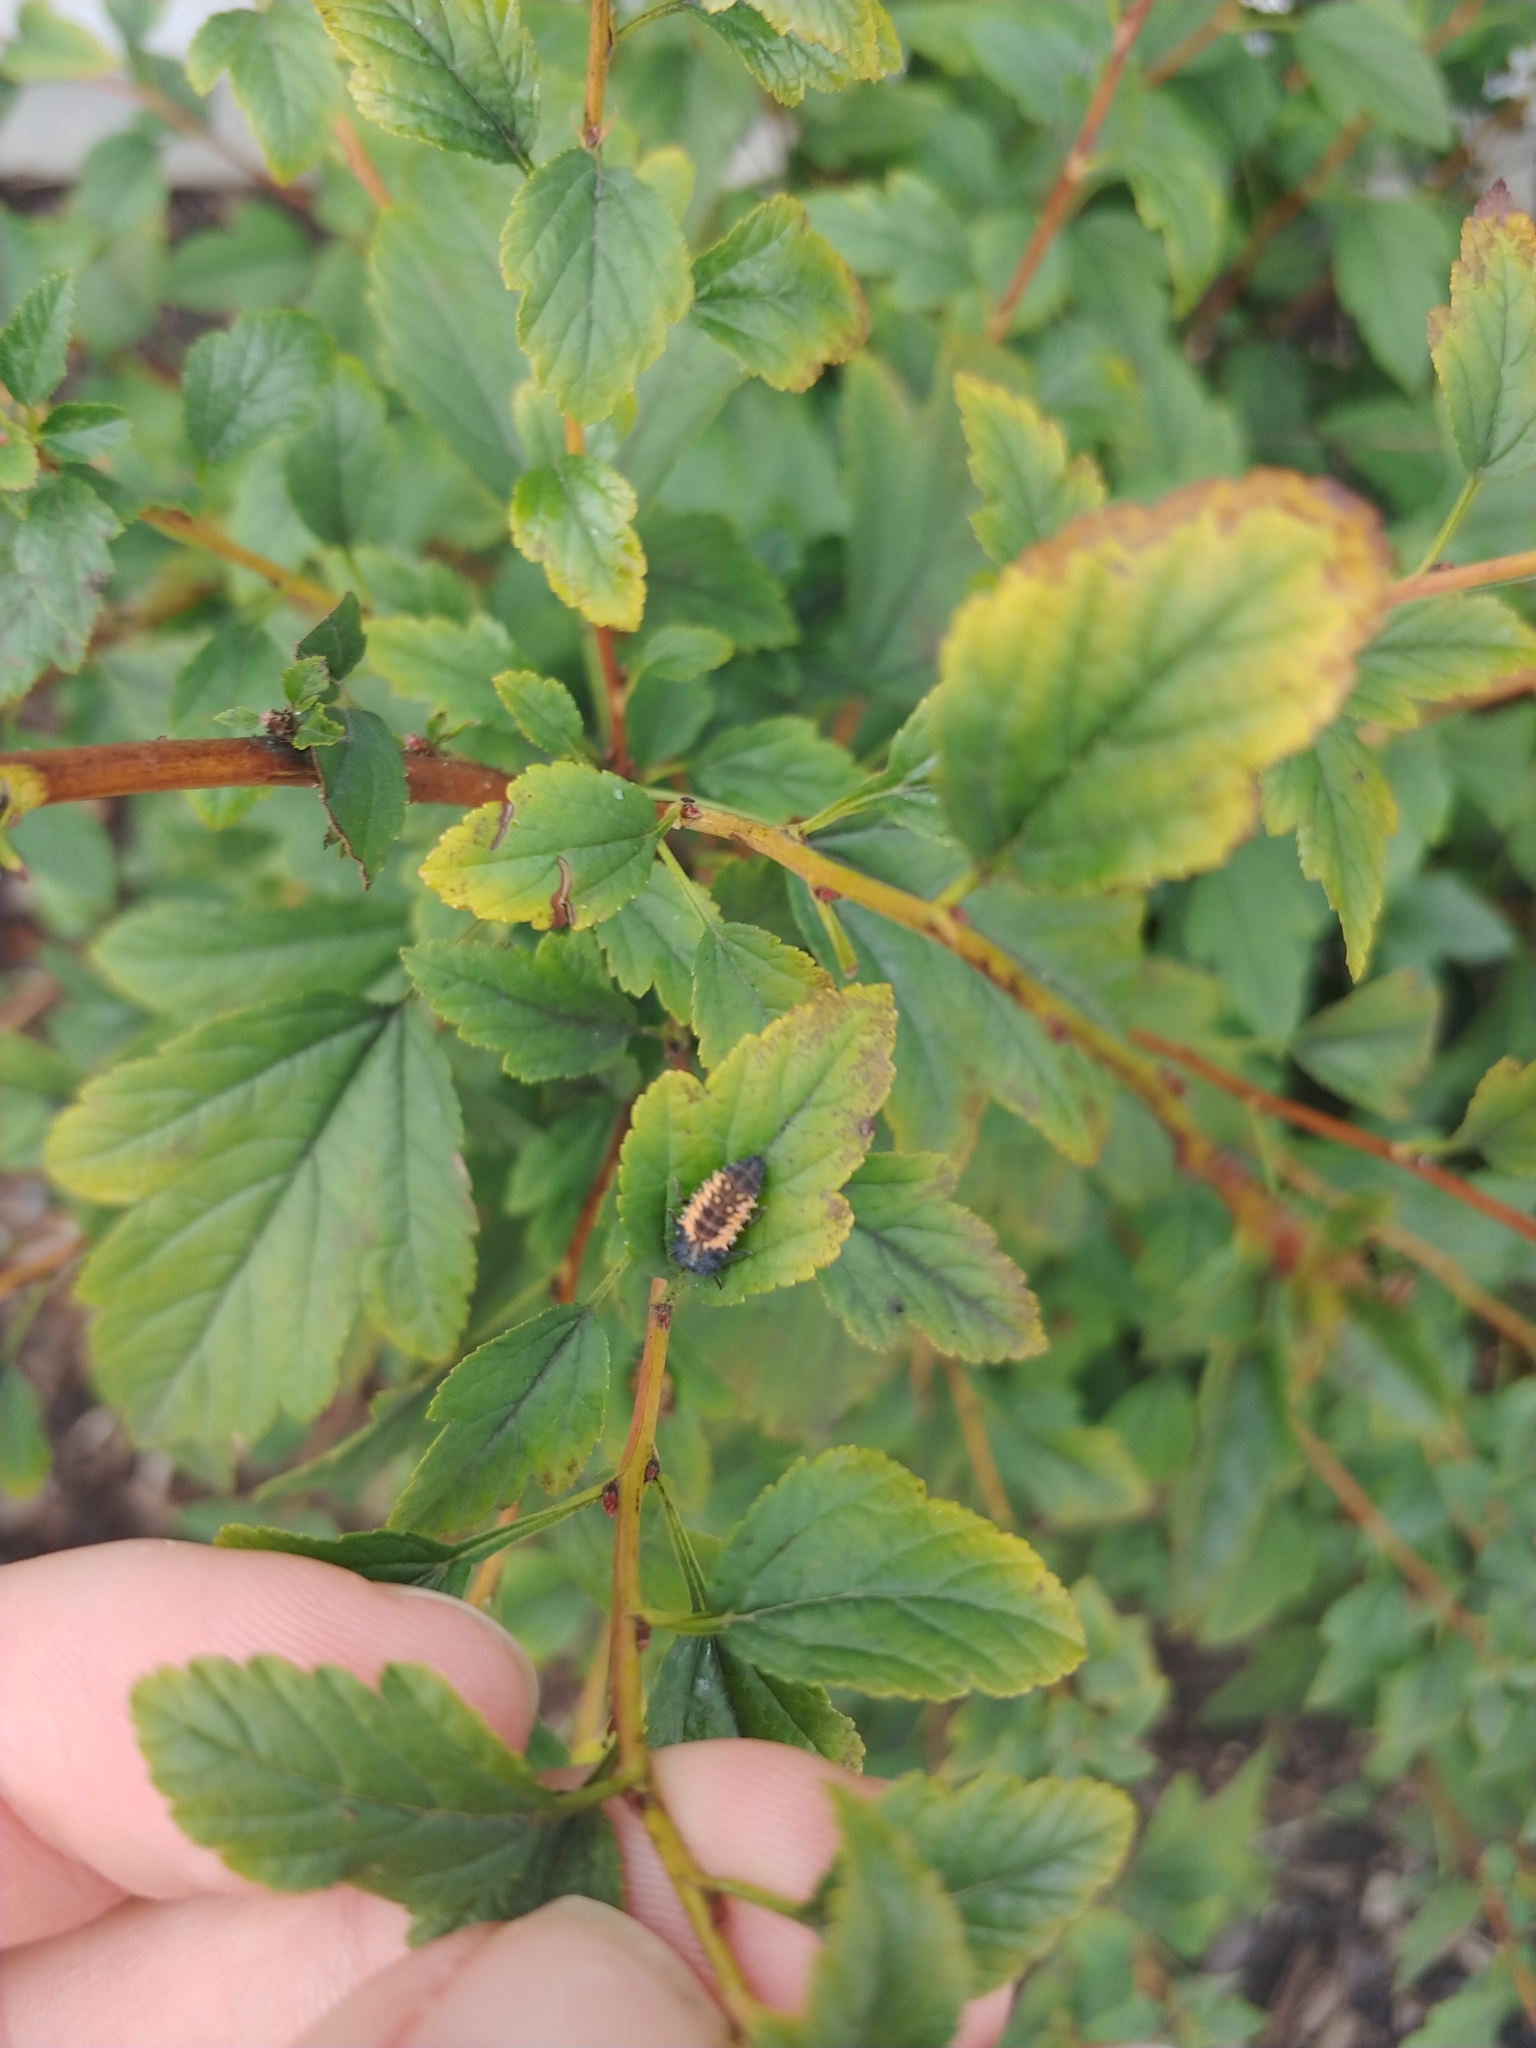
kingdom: Animalia
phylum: Arthropoda
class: Insecta
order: Coleoptera
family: Coccinellidae
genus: Harmonia
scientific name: Harmonia axyridis
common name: Harlequin ladybird
